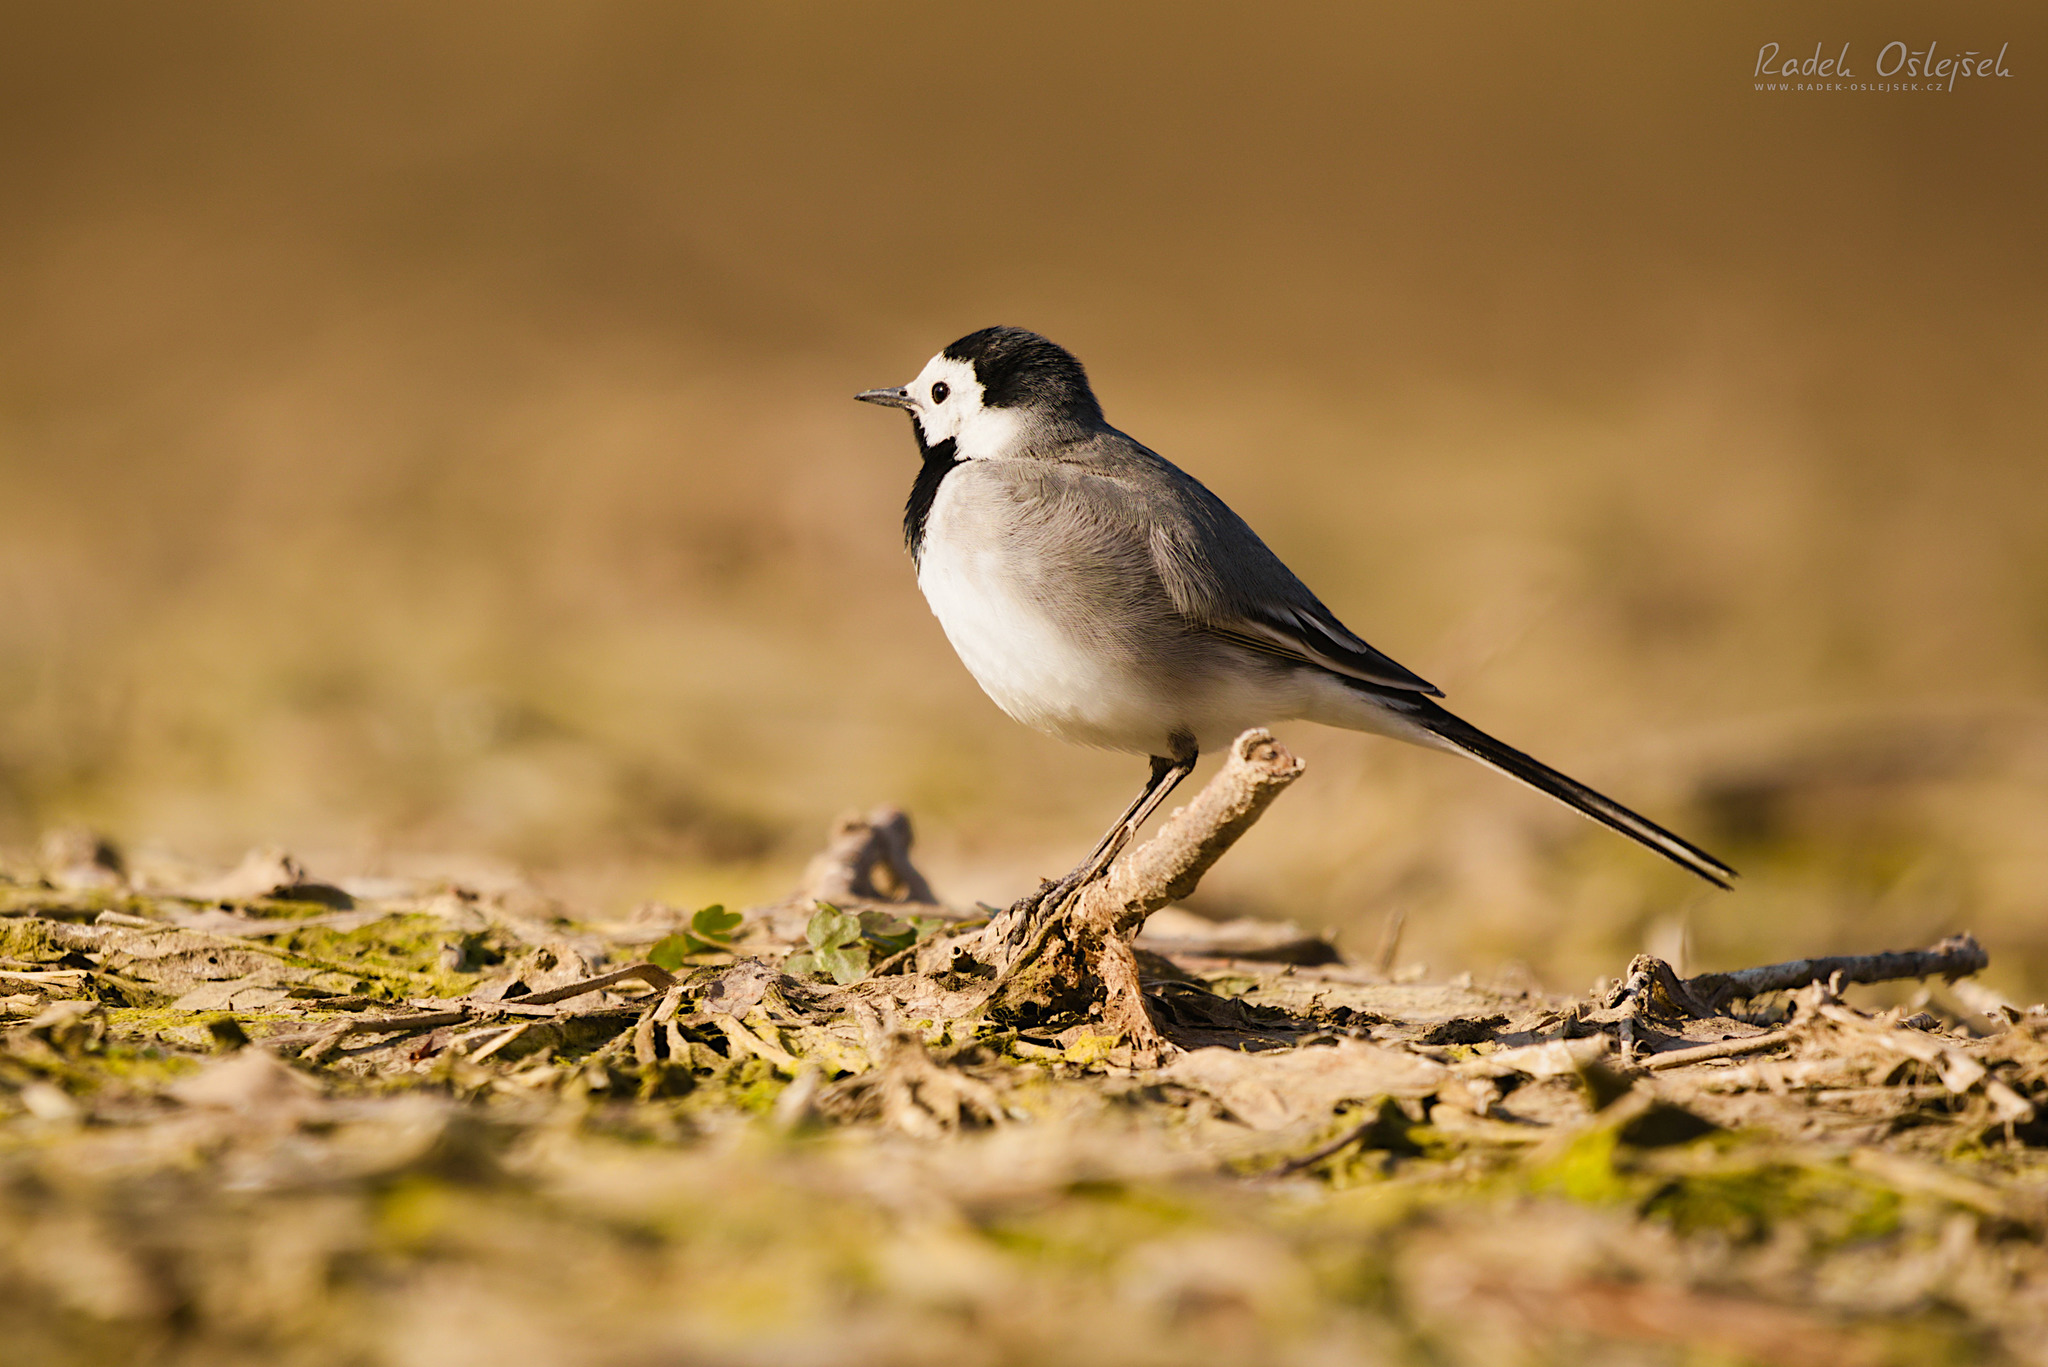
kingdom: Animalia
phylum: Chordata
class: Aves
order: Passeriformes
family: Motacillidae
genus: Motacilla
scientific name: Motacilla alba
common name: White wagtail
